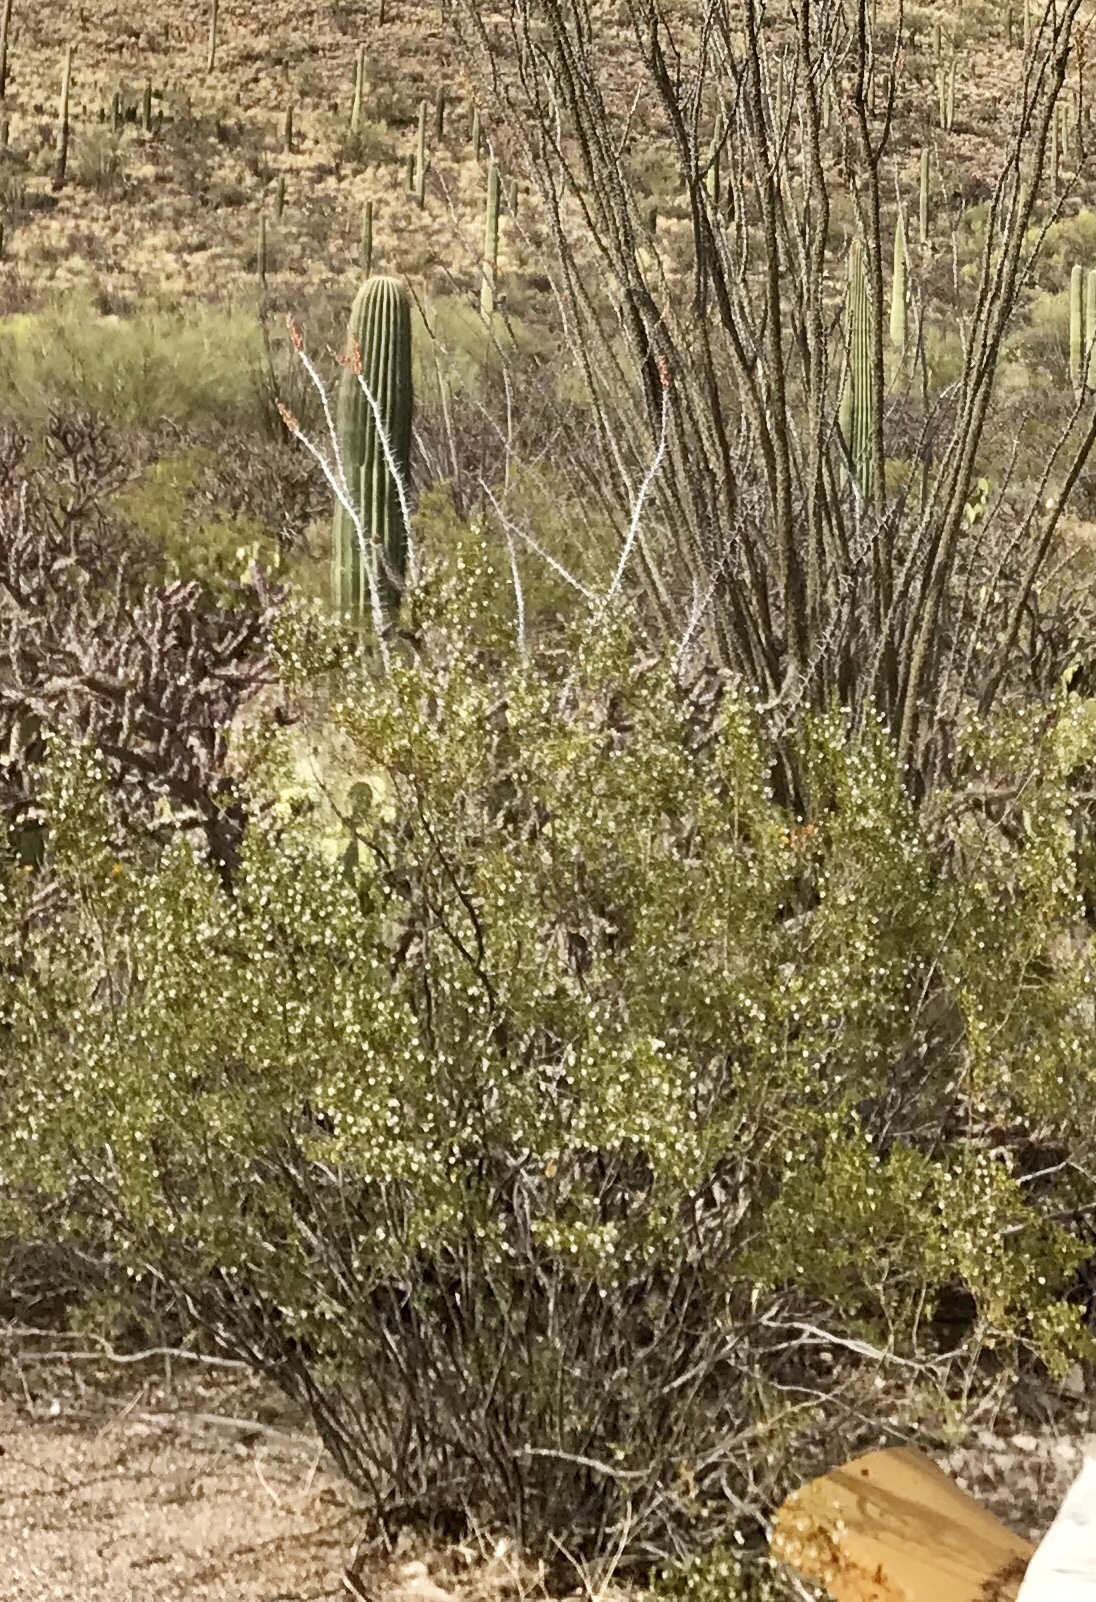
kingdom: Plantae
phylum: Tracheophyta
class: Magnoliopsida
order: Zygophyllales
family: Zygophyllaceae
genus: Larrea
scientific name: Larrea tridentata
